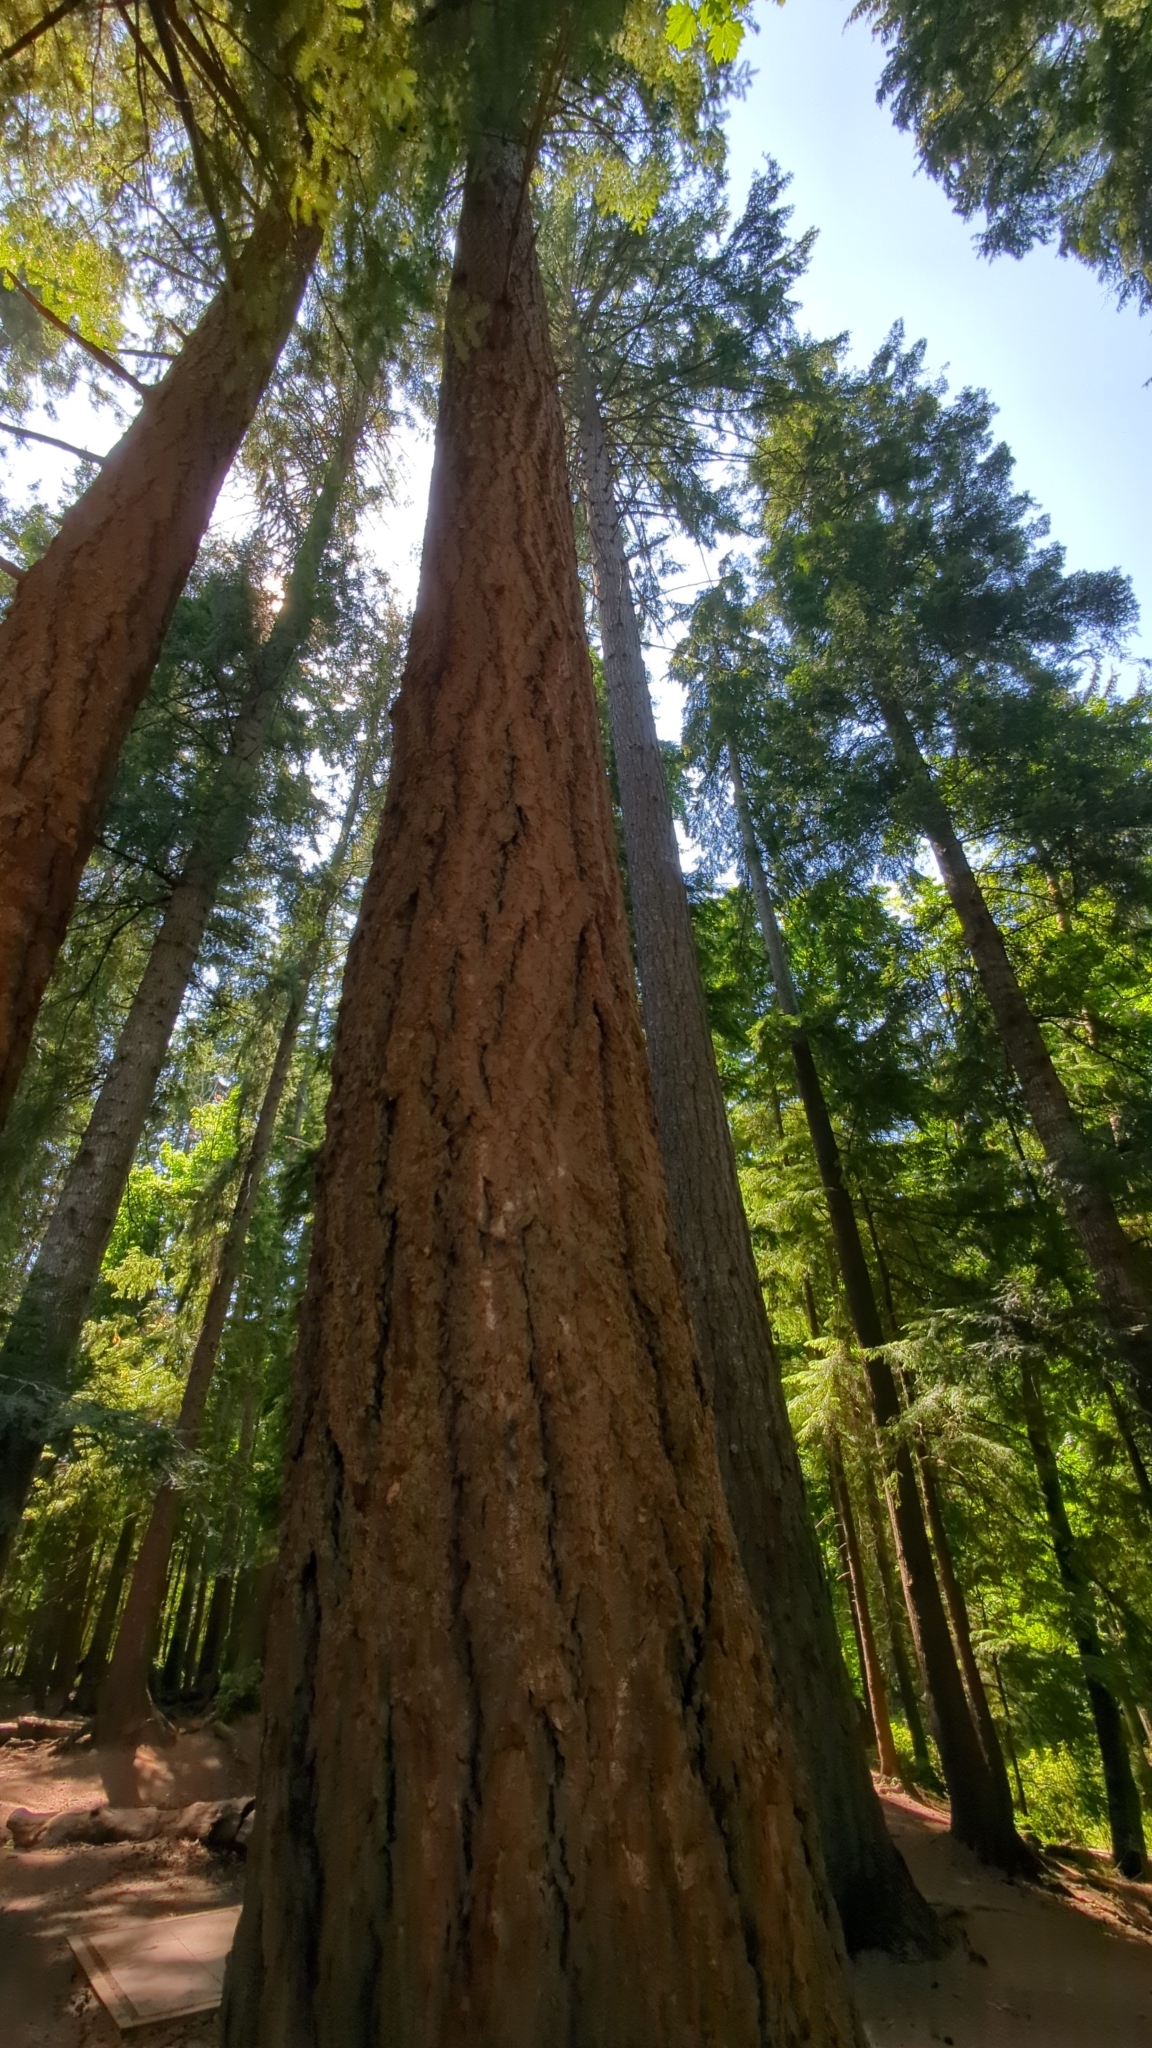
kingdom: Plantae
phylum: Tracheophyta
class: Pinopsida
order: Pinales
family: Pinaceae
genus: Pseudotsuga
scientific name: Pseudotsuga menziesii
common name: Douglas fir
